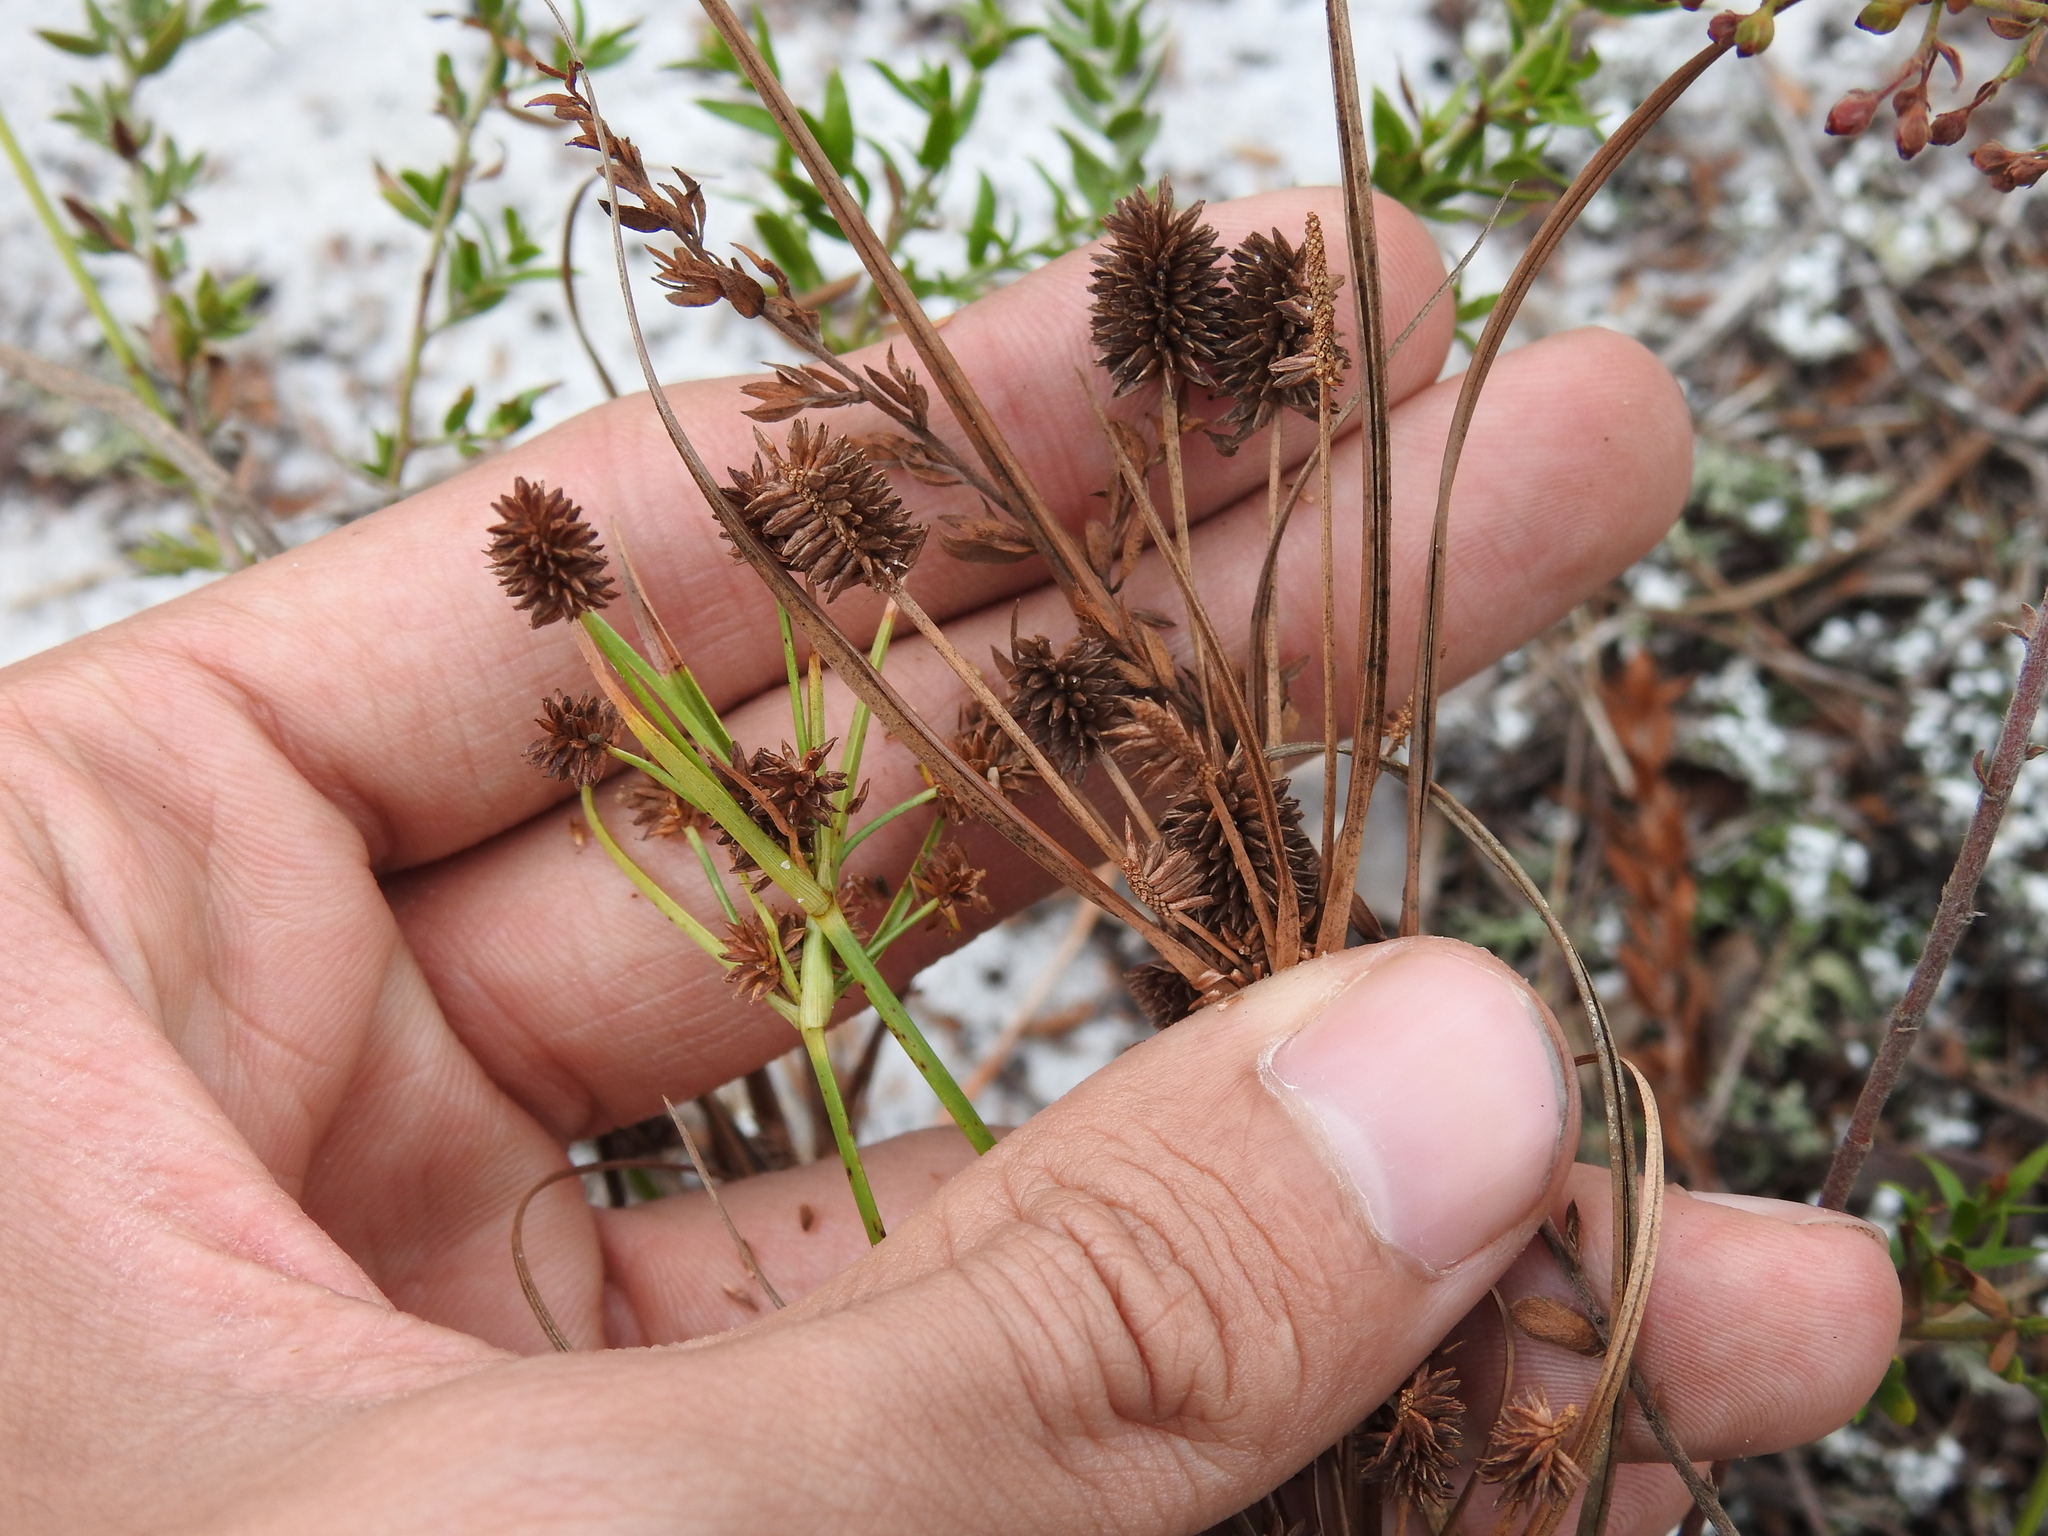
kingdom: Plantae
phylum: Tracheophyta
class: Liliopsida
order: Poales
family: Cyperaceae
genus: Cyperus
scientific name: Cyperus retrorsus
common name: Pinebarren flat sedge
